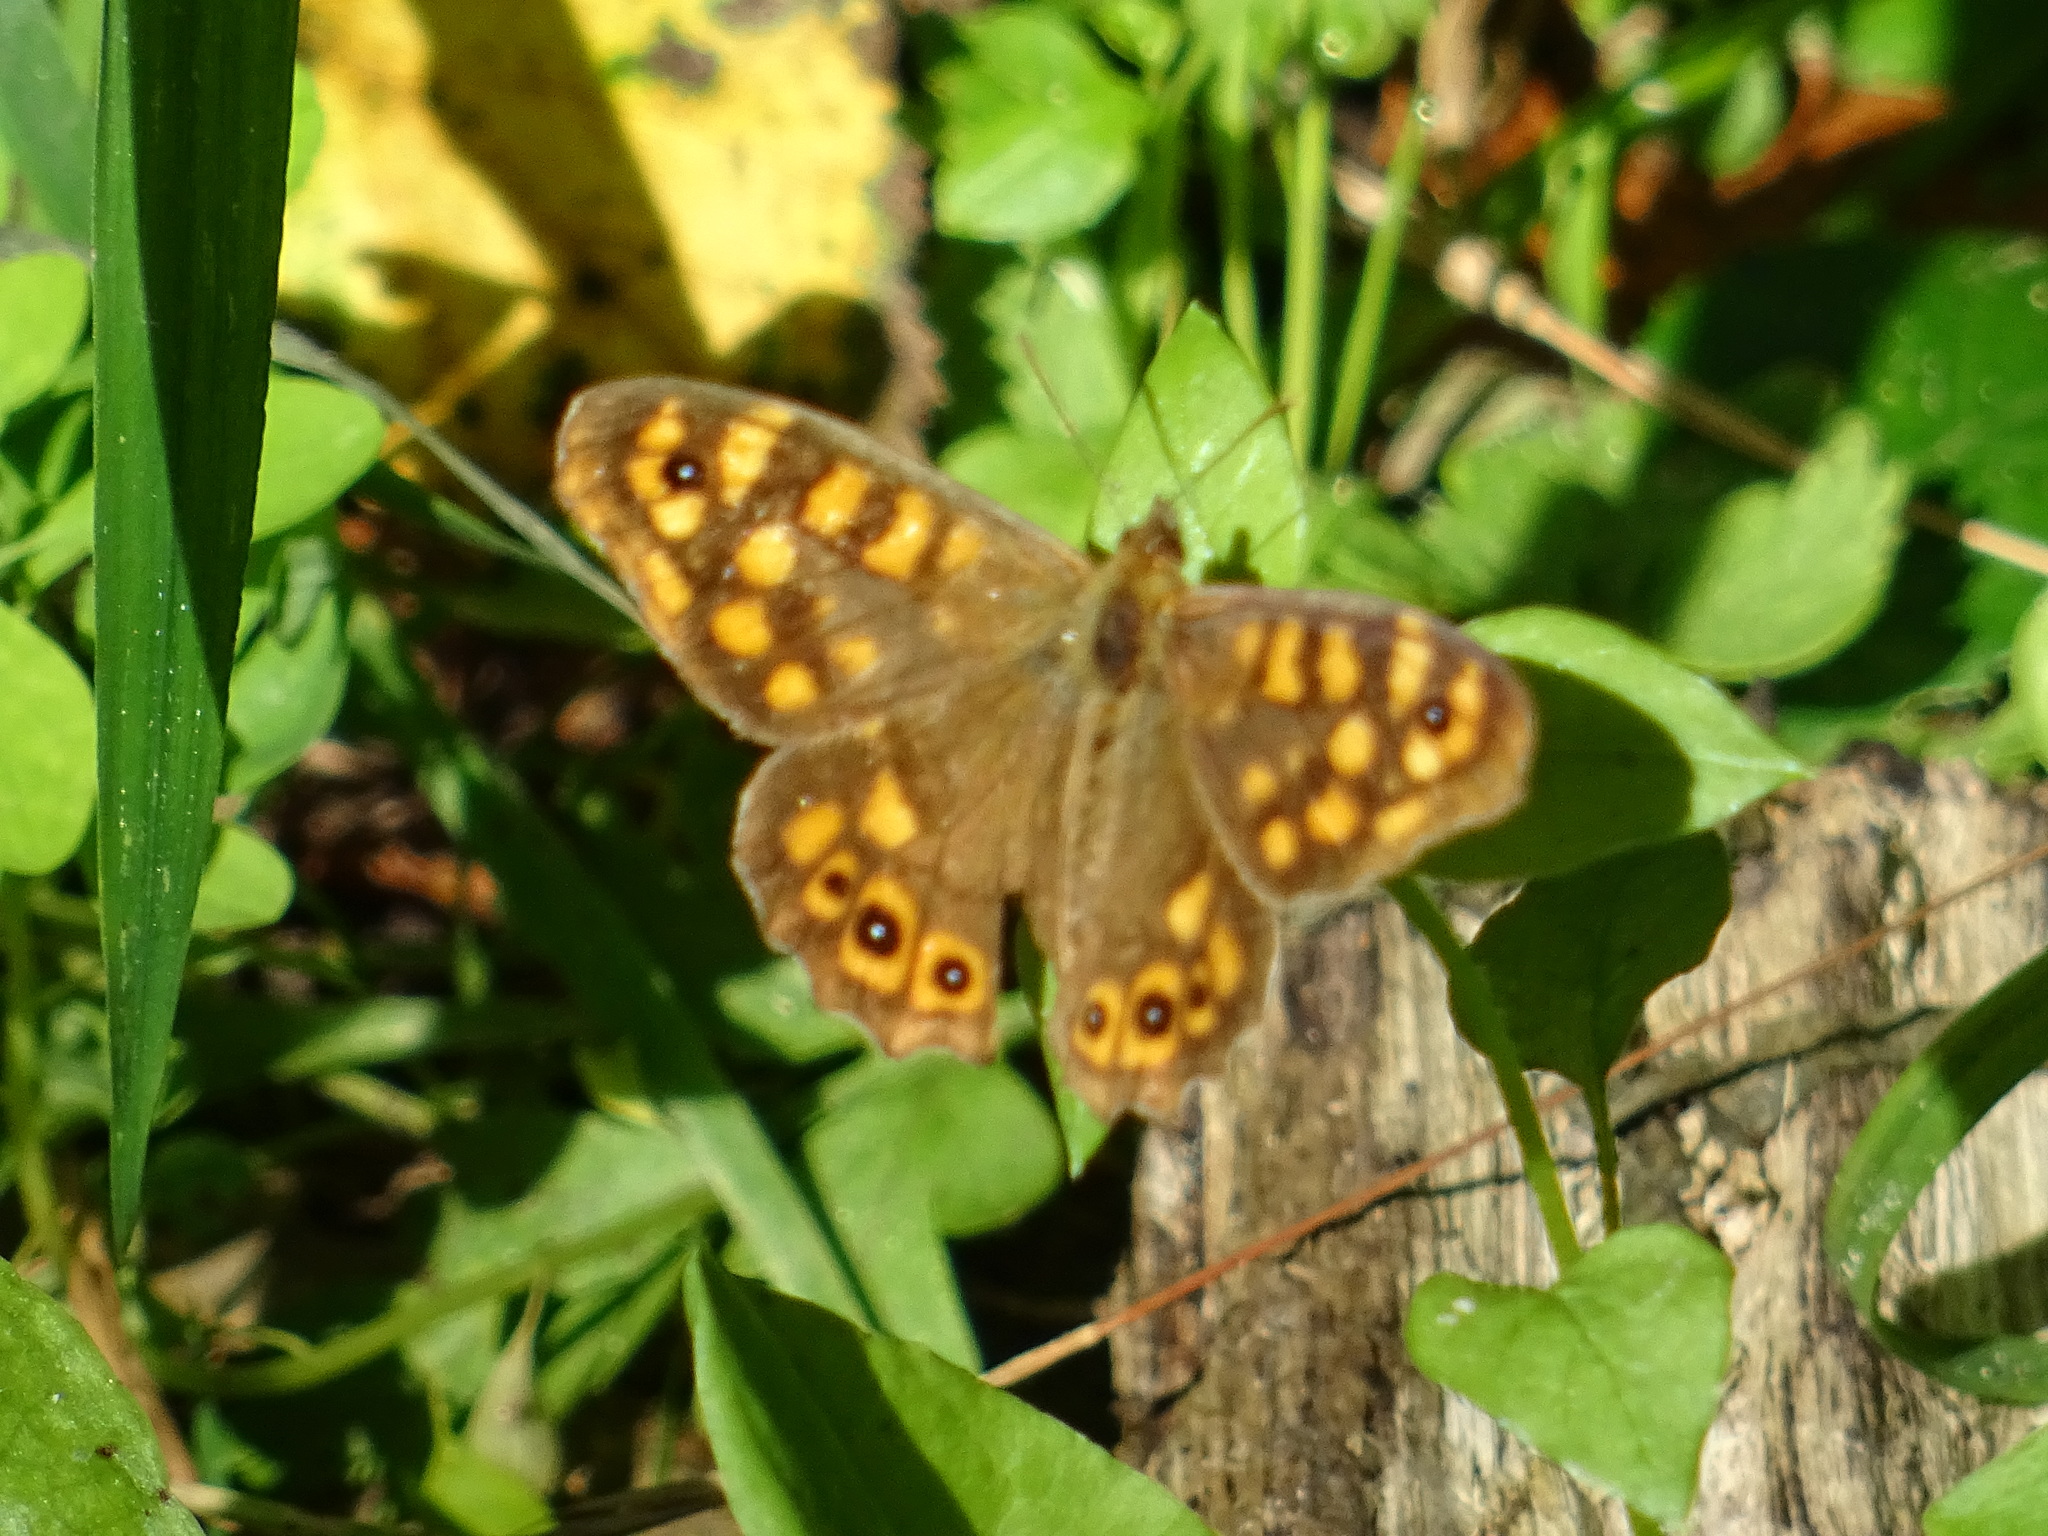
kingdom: Animalia
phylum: Arthropoda
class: Insecta
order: Lepidoptera
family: Nymphalidae
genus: Pararge
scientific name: Pararge aegeria
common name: Speckled wood
